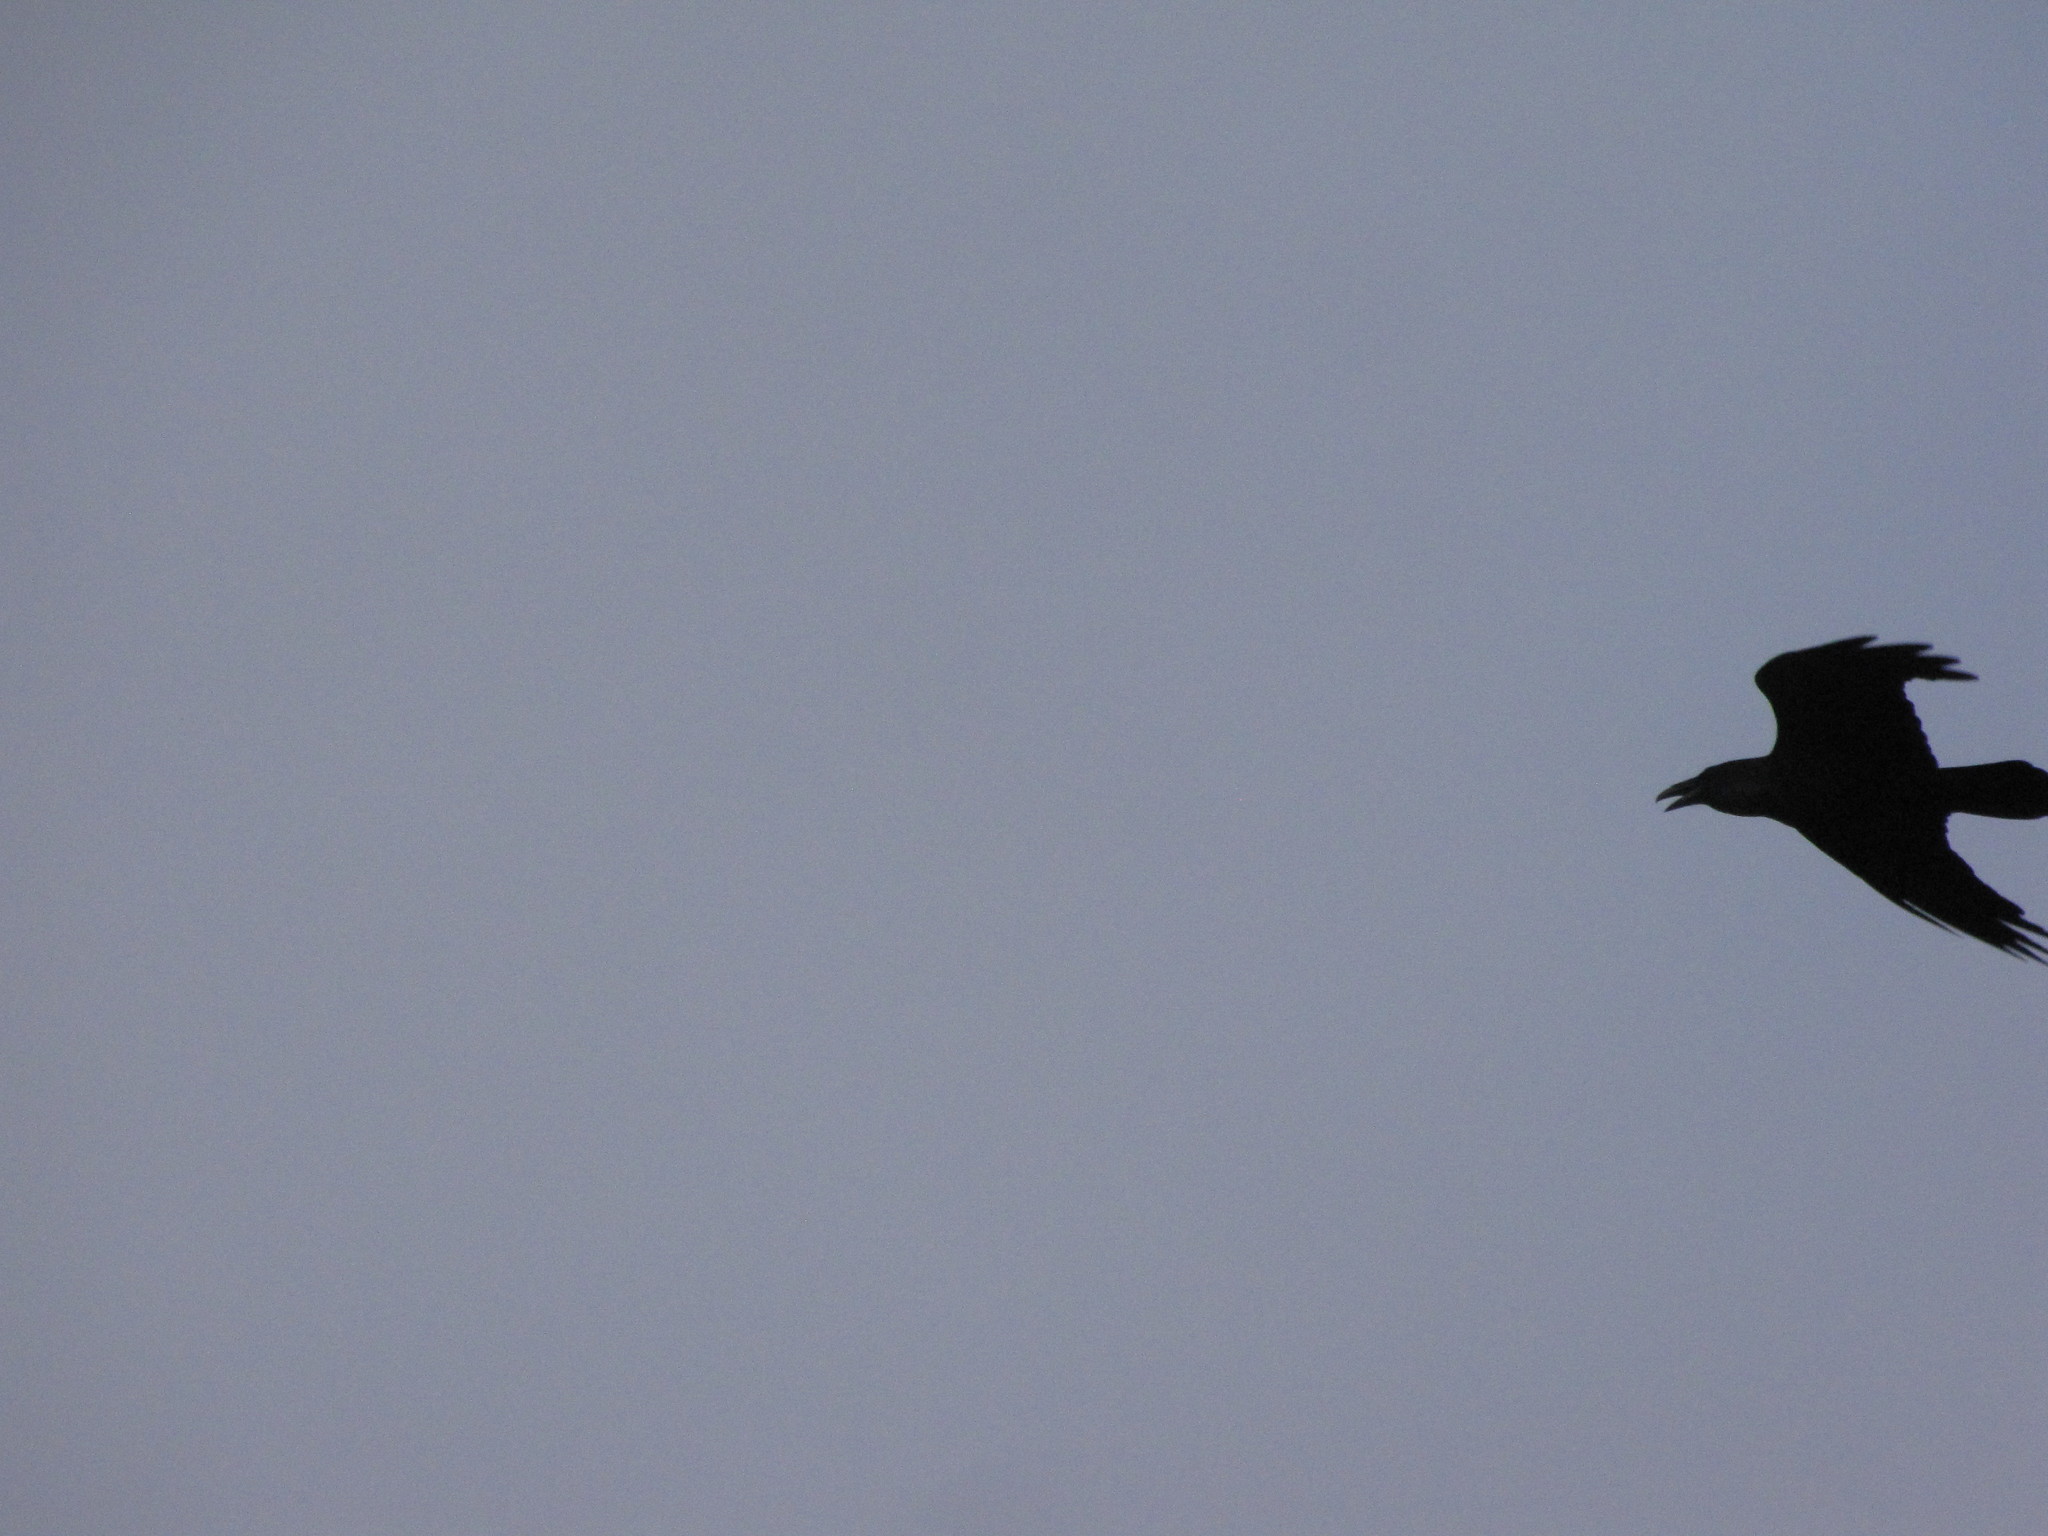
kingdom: Animalia
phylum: Chordata
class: Aves
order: Passeriformes
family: Corvidae
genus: Corvus
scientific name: Corvus corax
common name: Common raven
